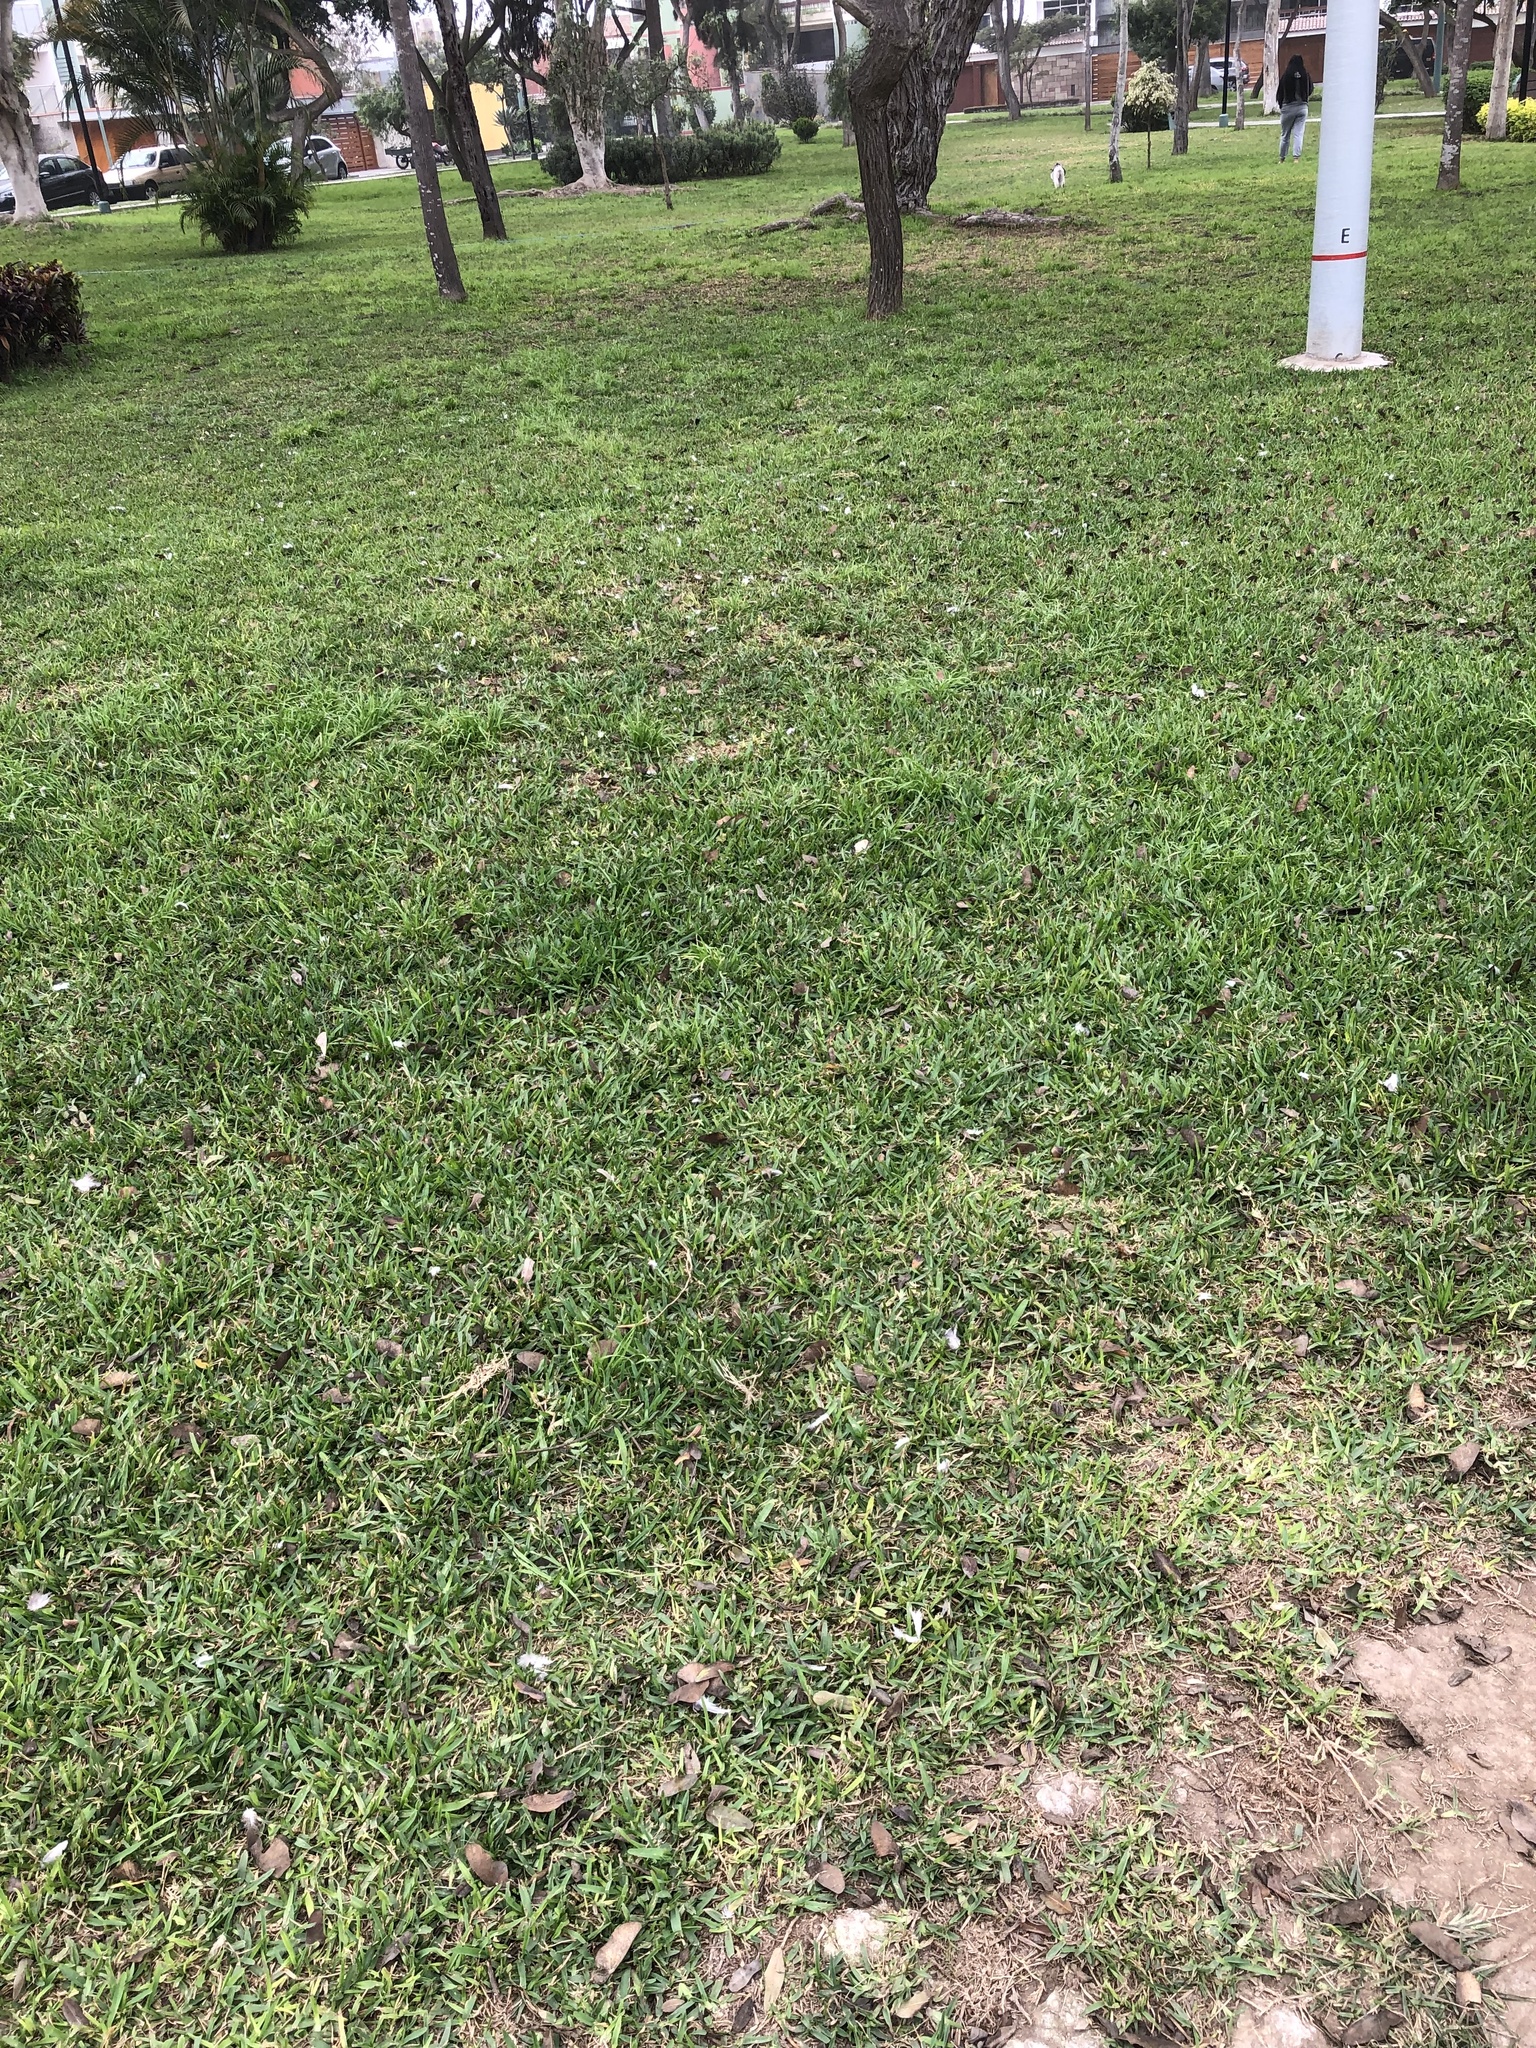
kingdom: Animalia
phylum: Chordata
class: Aves
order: Columbiformes
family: Columbidae
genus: Zenaida
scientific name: Zenaida meloda
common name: West peruvian dove
